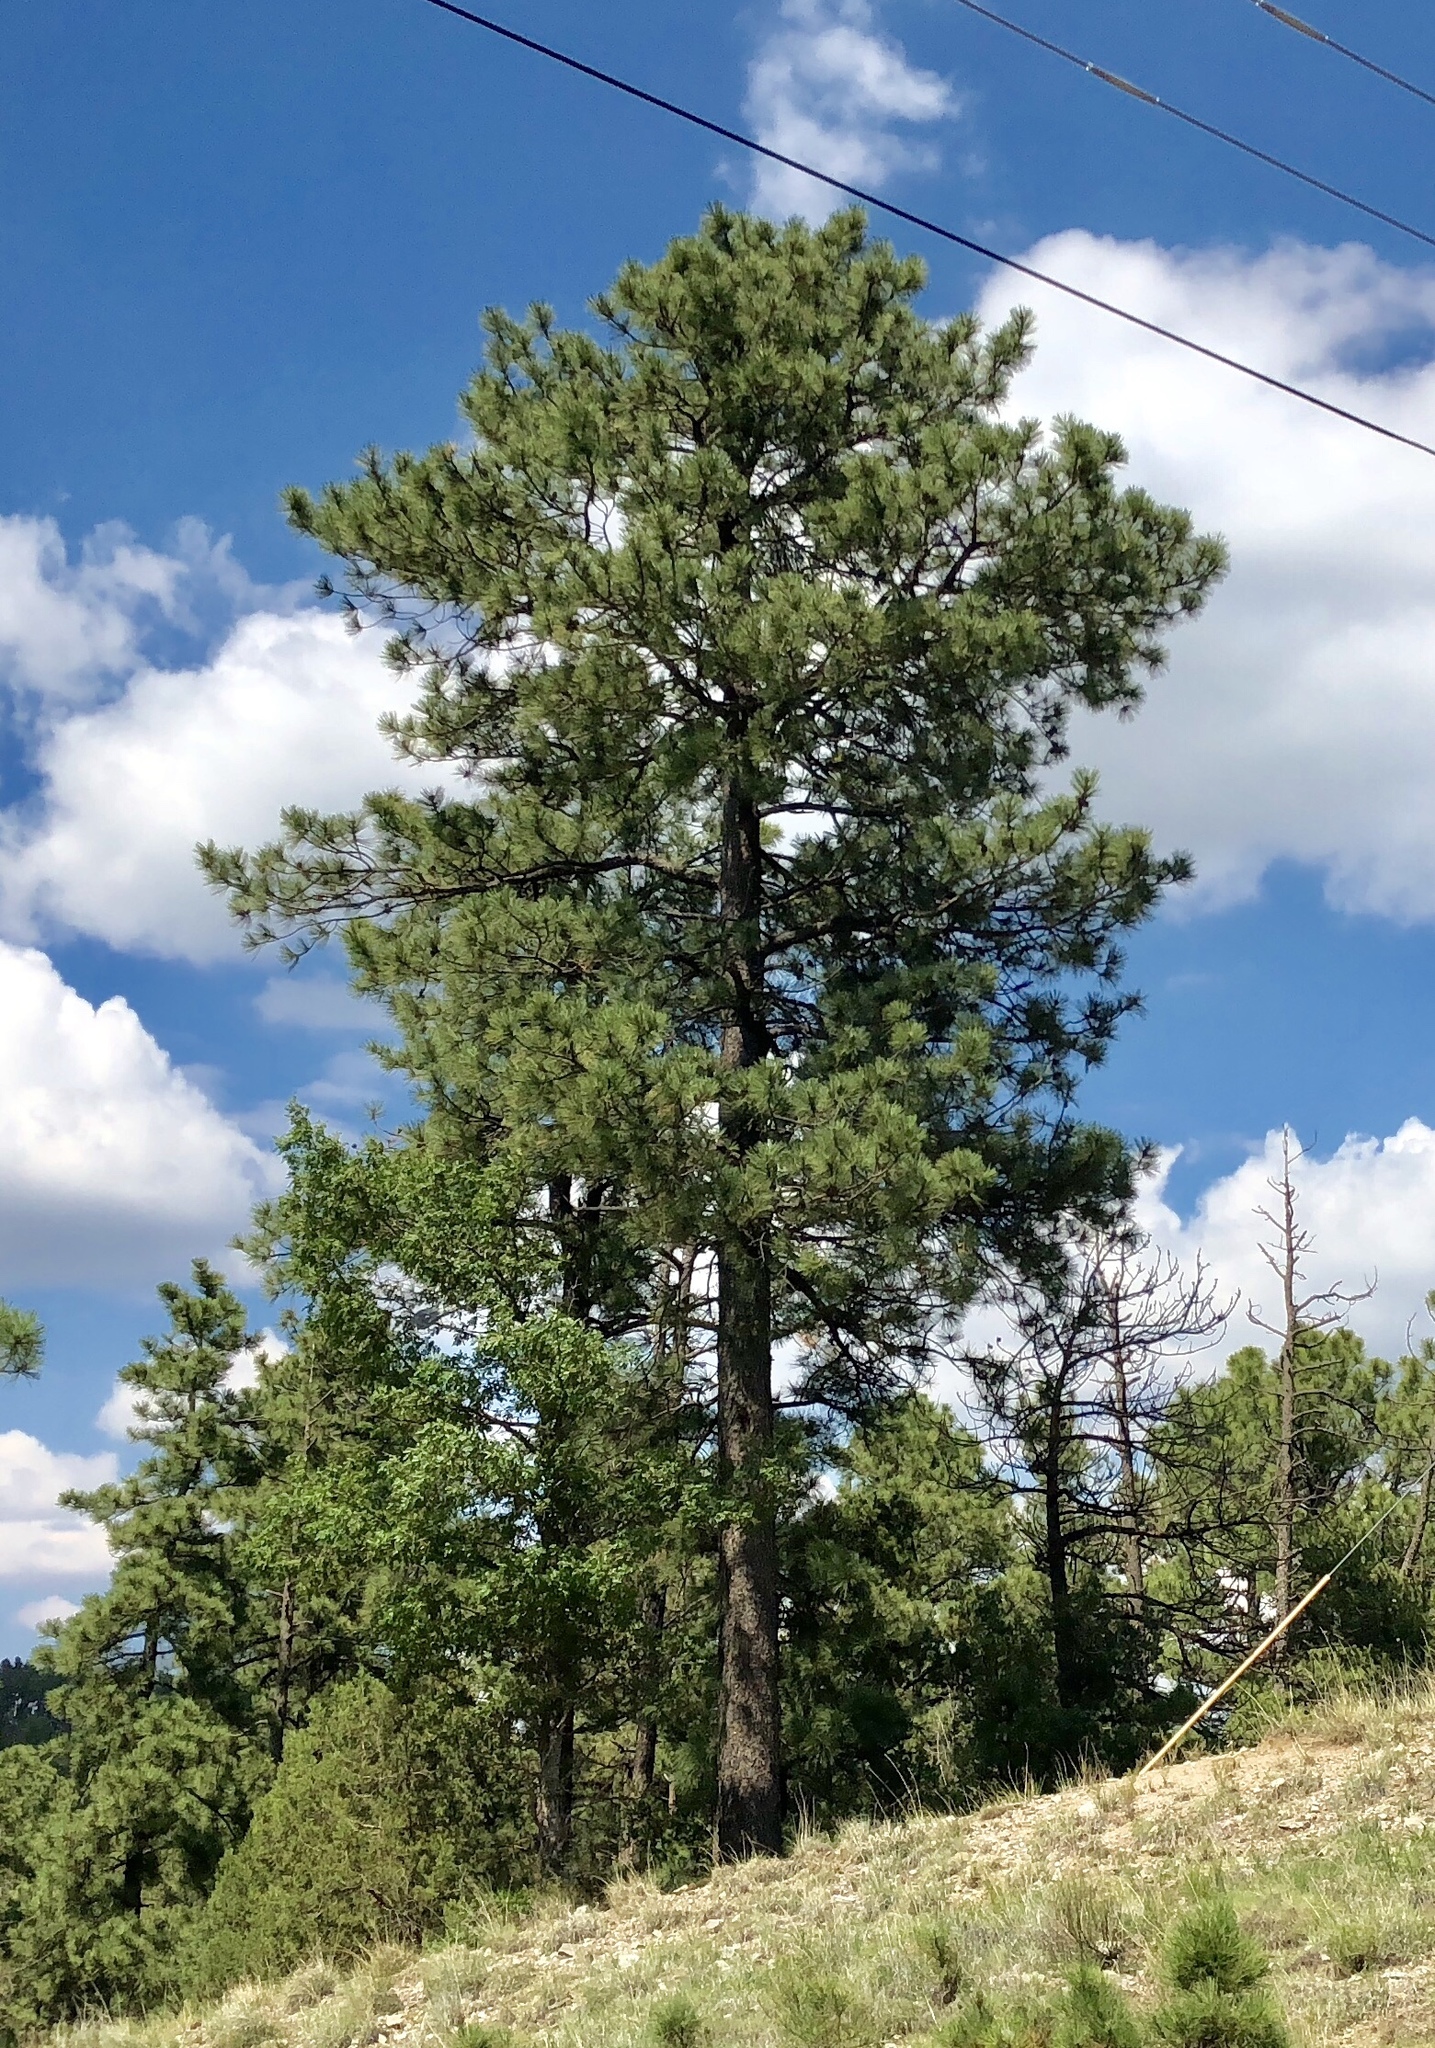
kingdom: Plantae
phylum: Tracheophyta
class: Pinopsida
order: Pinales
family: Pinaceae
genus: Pinus
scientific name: Pinus ponderosa
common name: Western yellow-pine
